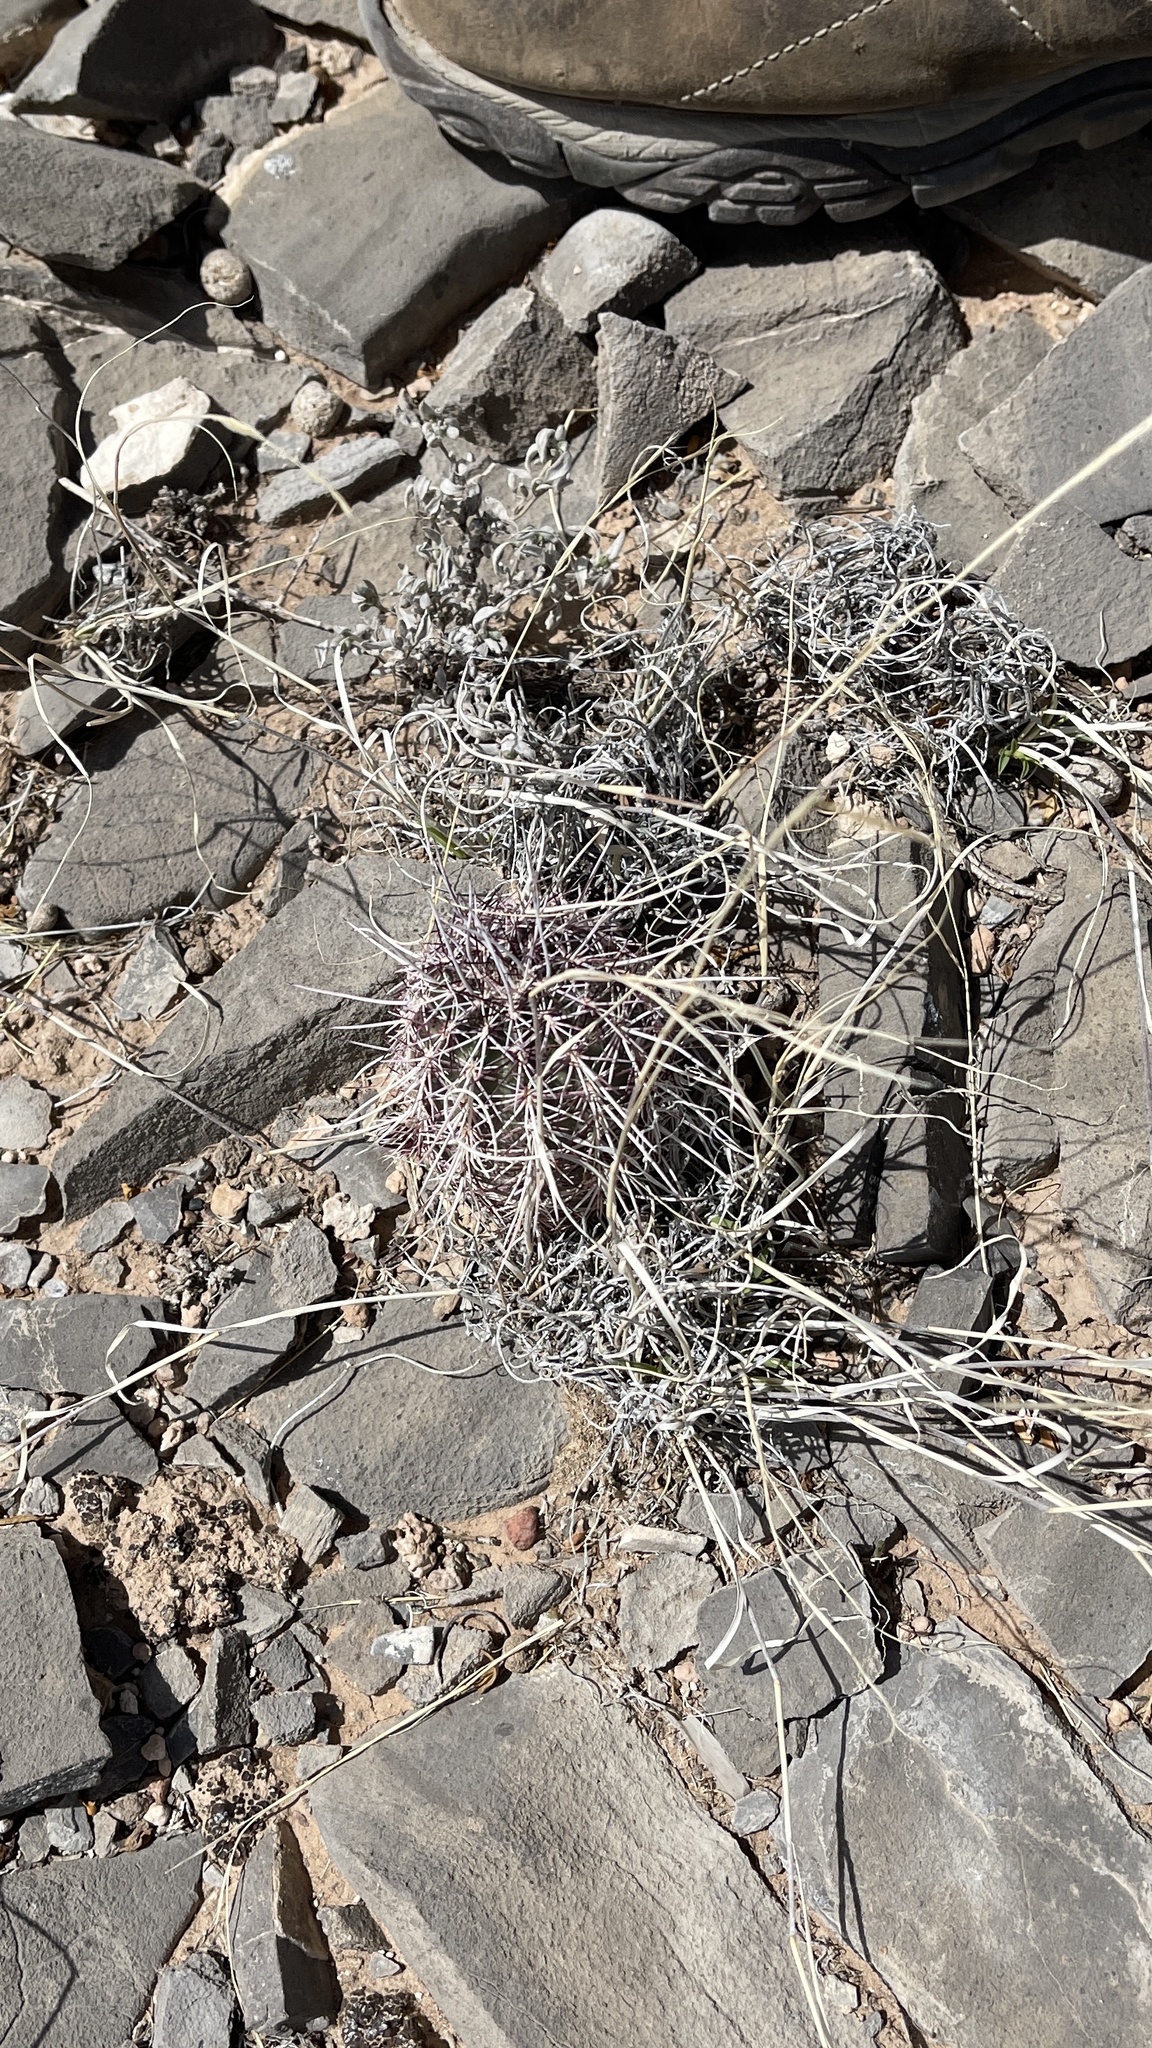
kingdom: Plantae
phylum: Tracheophyta
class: Magnoliopsida
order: Caryophyllales
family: Cactaceae
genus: Echinocereus
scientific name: Echinocereus viridiflorus
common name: Nylon hedgehog cactus
